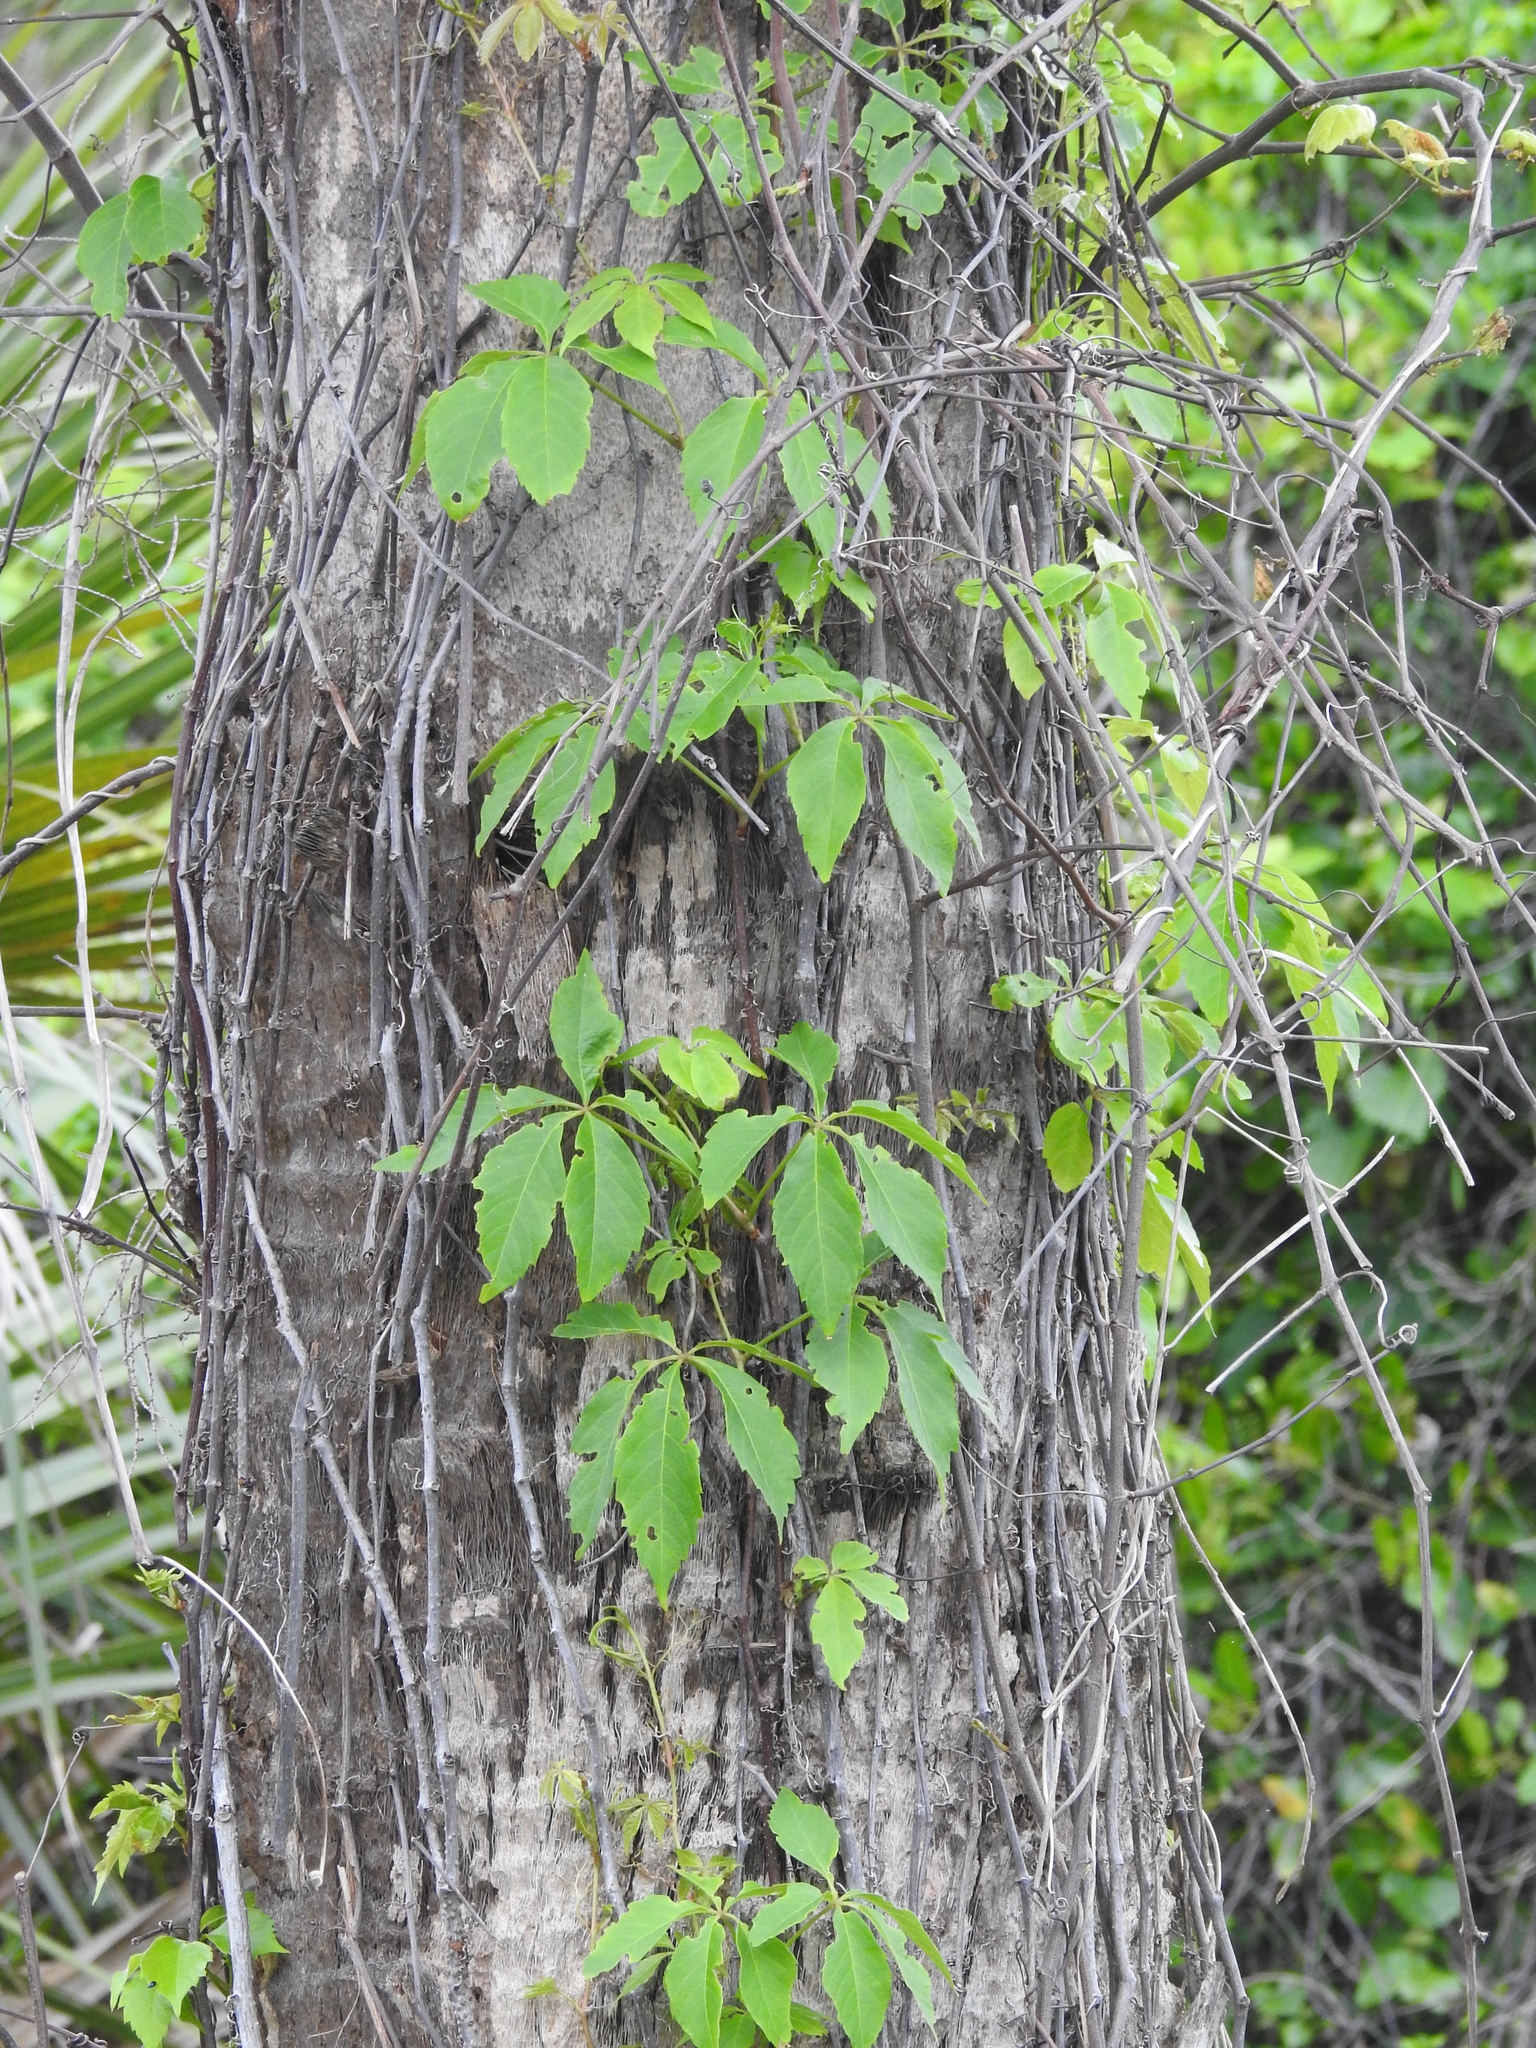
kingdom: Plantae
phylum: Tracheophyta
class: Magnoliopsida
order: Vitales
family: Vitaceae
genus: Parthenocissus
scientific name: Parthenocissus quinquefolia
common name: Virginia-creeper
